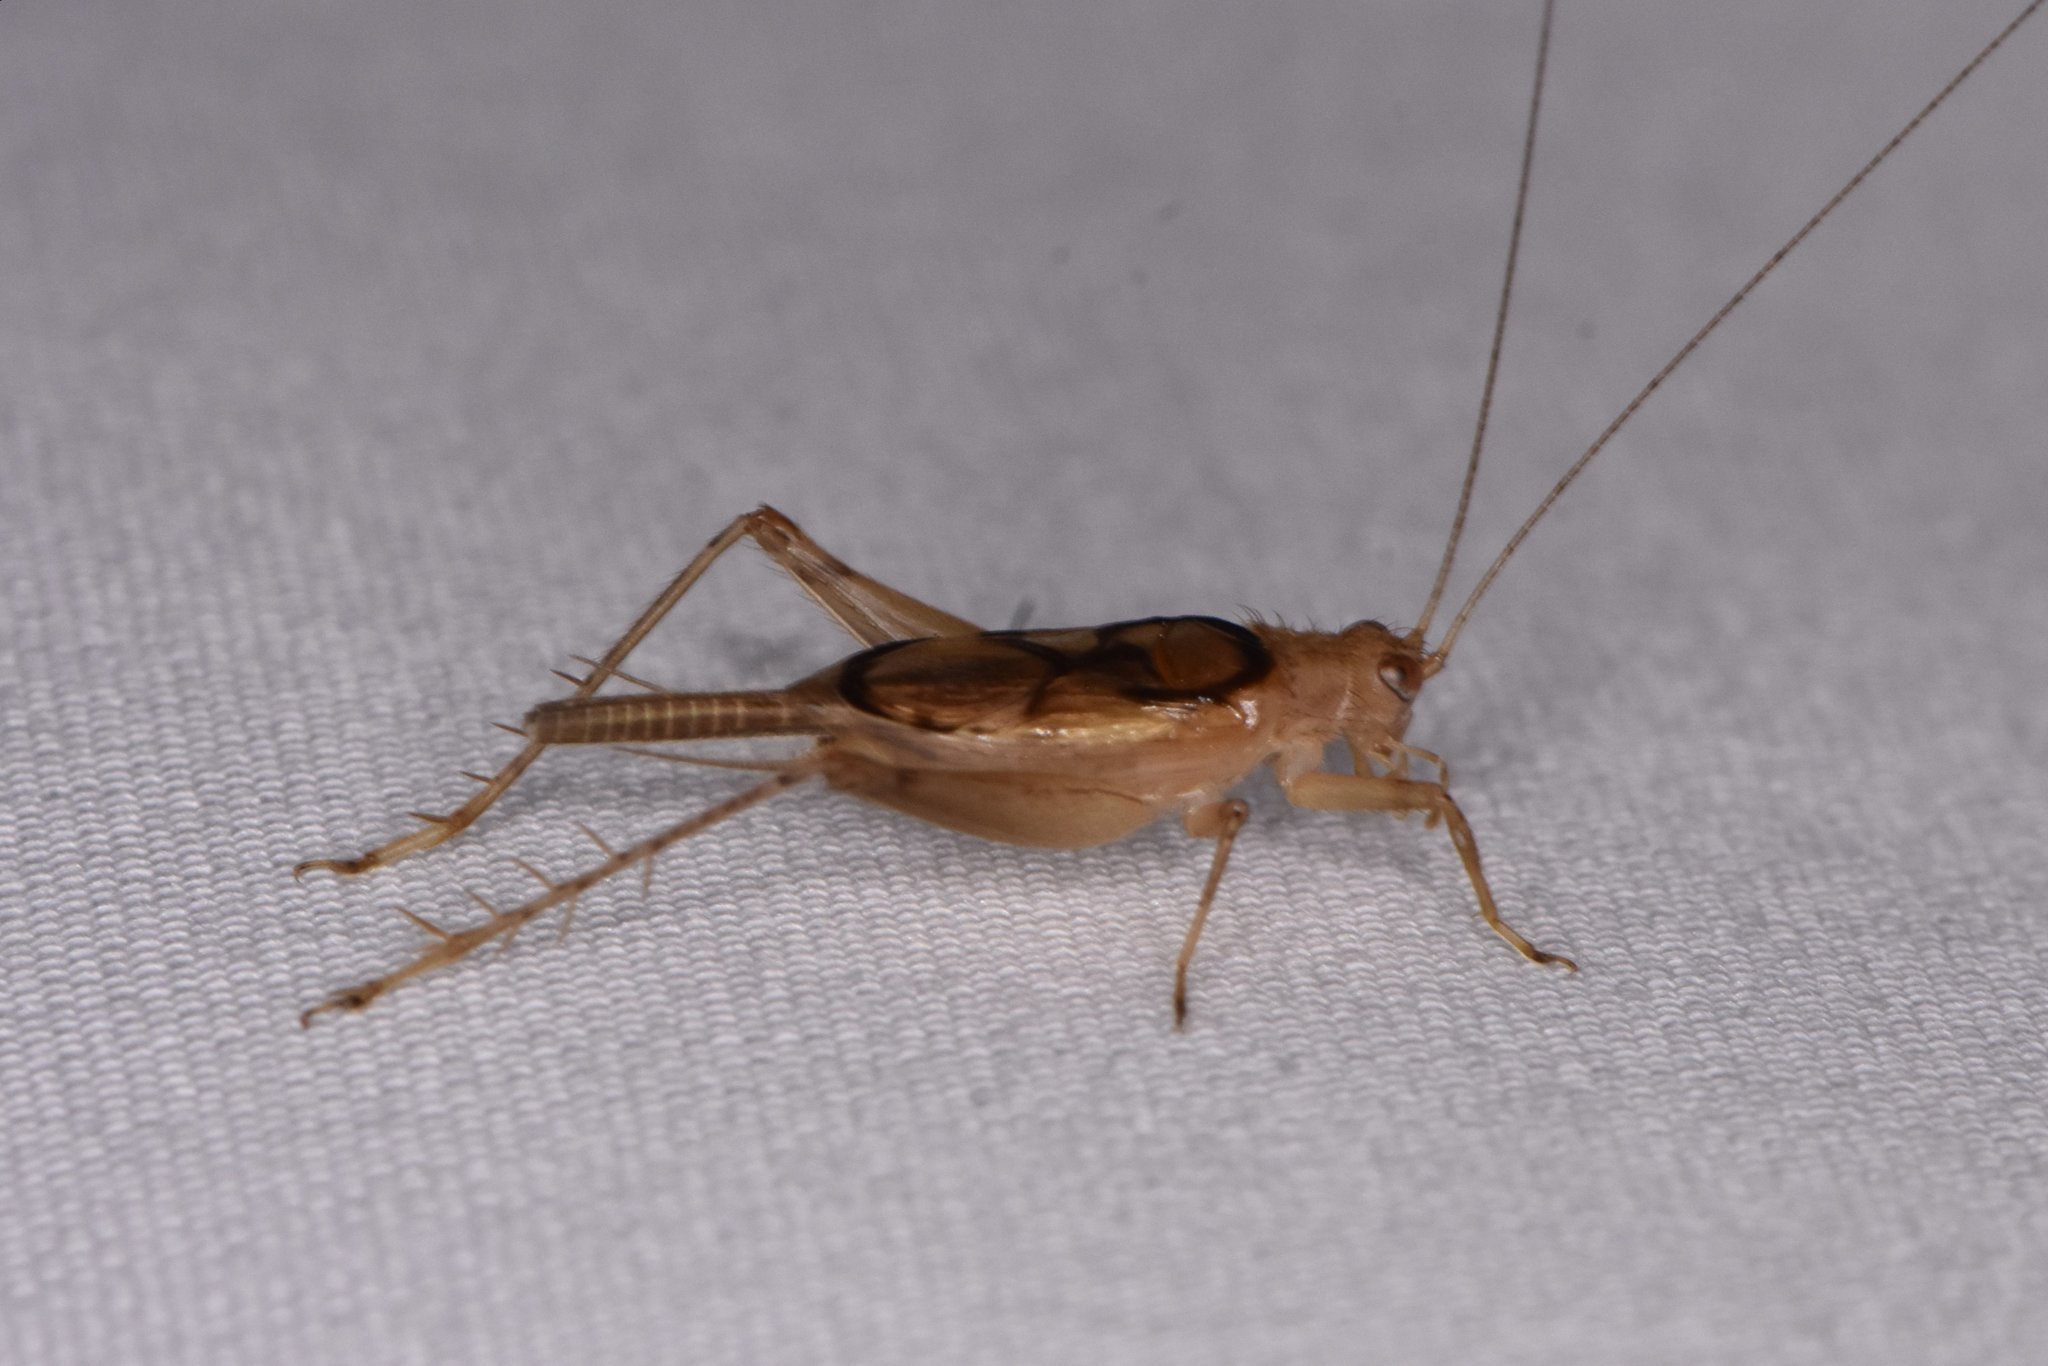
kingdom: Animalia
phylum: Arthropoda
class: Insecta
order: Orthoptera
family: Trigonidiidae
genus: Anaxipha
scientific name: Anaxipha calusa
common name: Calusa trig
